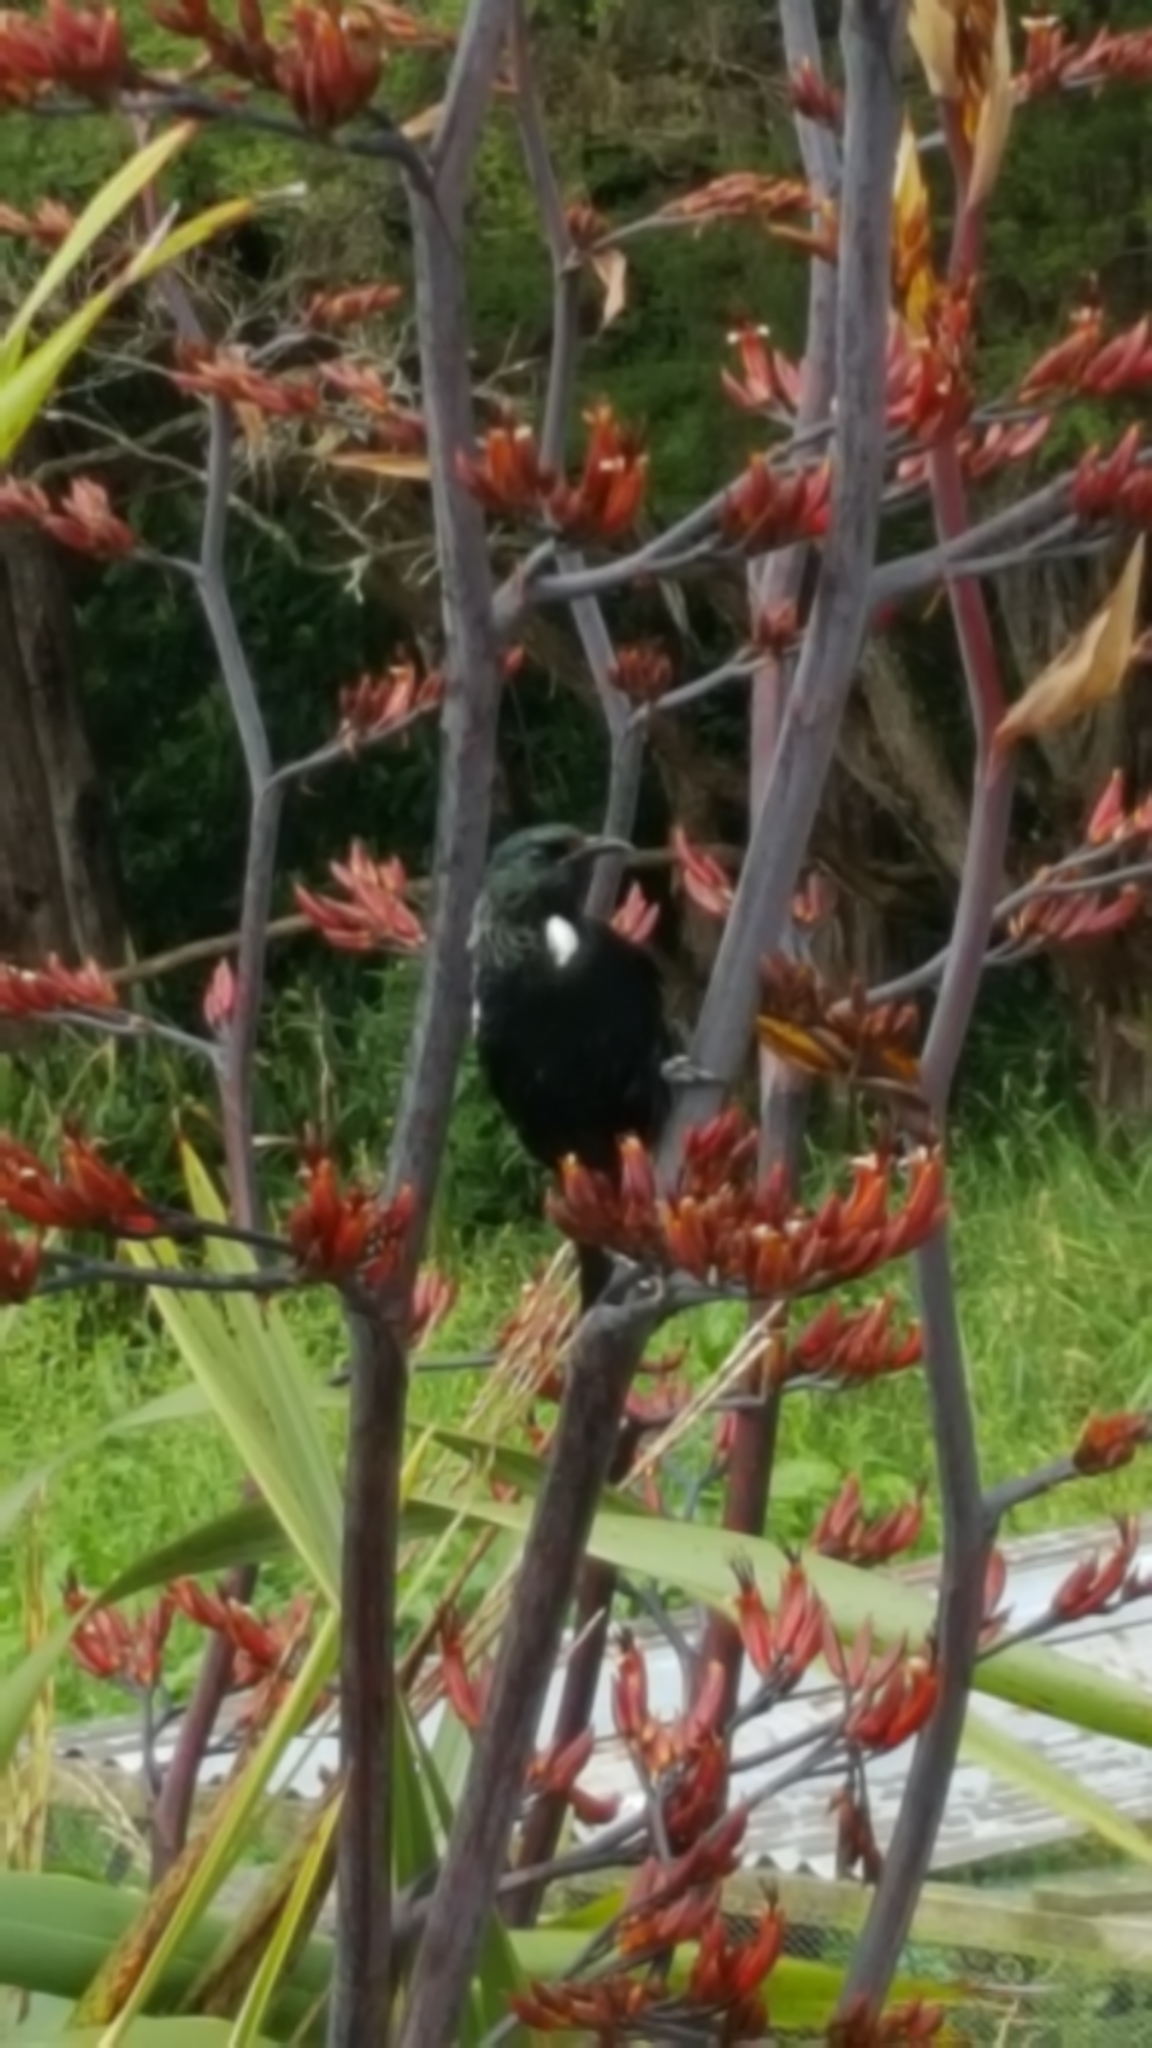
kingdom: Animalia
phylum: Chordata
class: Aves
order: Passeriformes
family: Meliphagidae
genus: Prosthemadera
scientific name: Prosthemadera novaeseelandiae
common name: Tui
